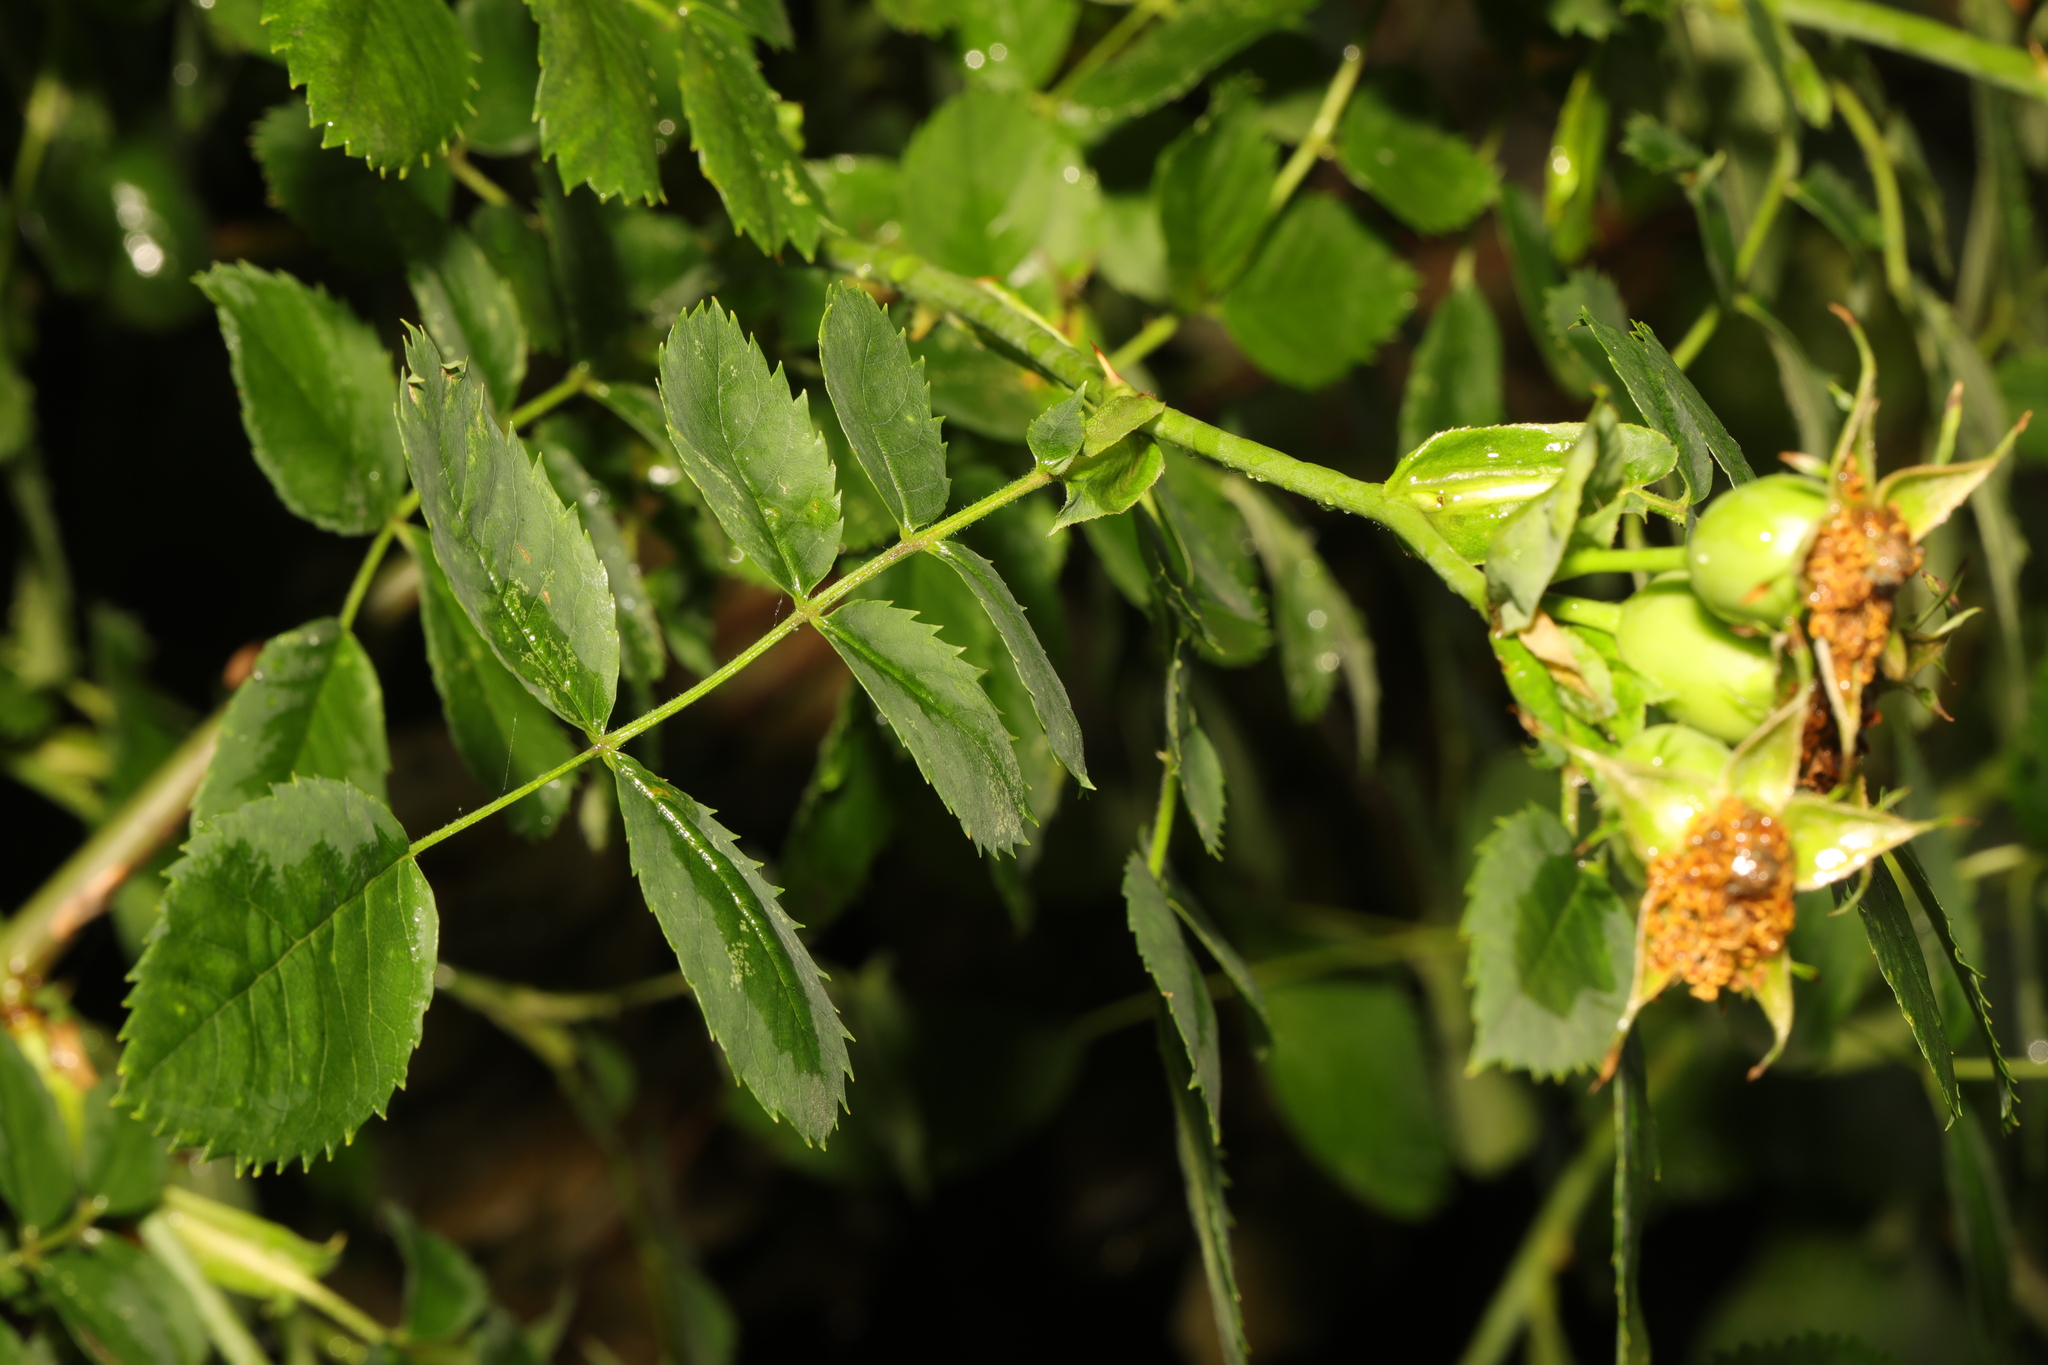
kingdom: Plantae
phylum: Tracheophyta
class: Magnoliopsida
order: Rosales
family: Rosaceae
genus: Rosa
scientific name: Rosa canina
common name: Dog rose
